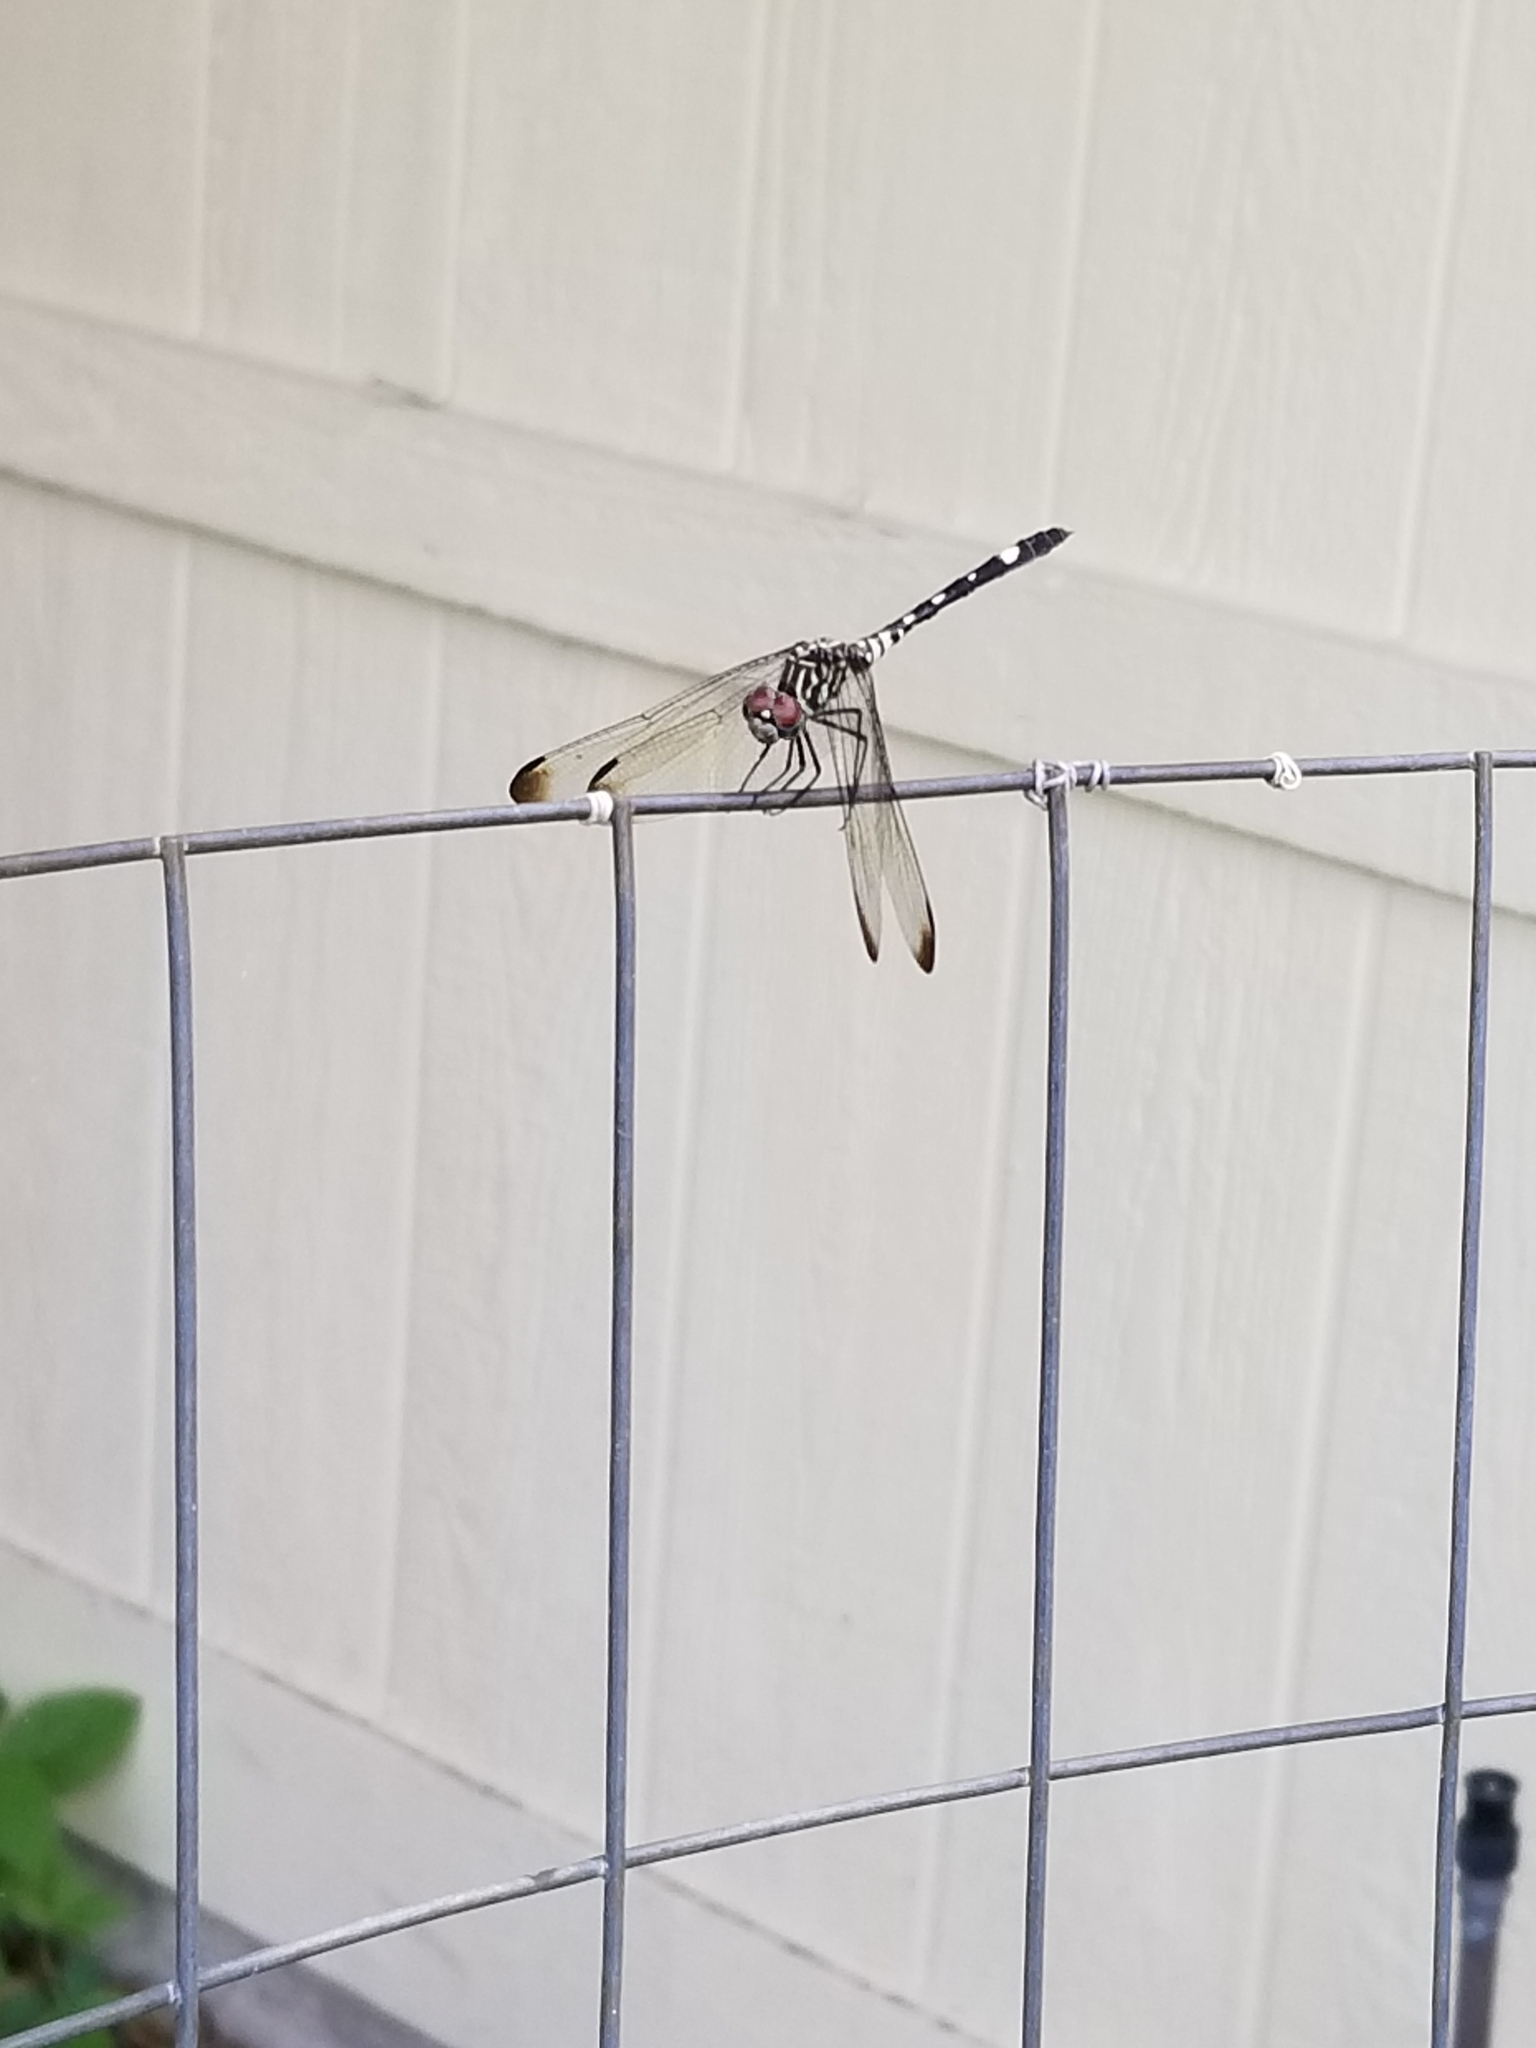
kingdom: Animalia
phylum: Arthropoda
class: Insecta
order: Odonata
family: Libellulidae
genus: Dythemis
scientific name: Dythemis velox
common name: Swift setwing
